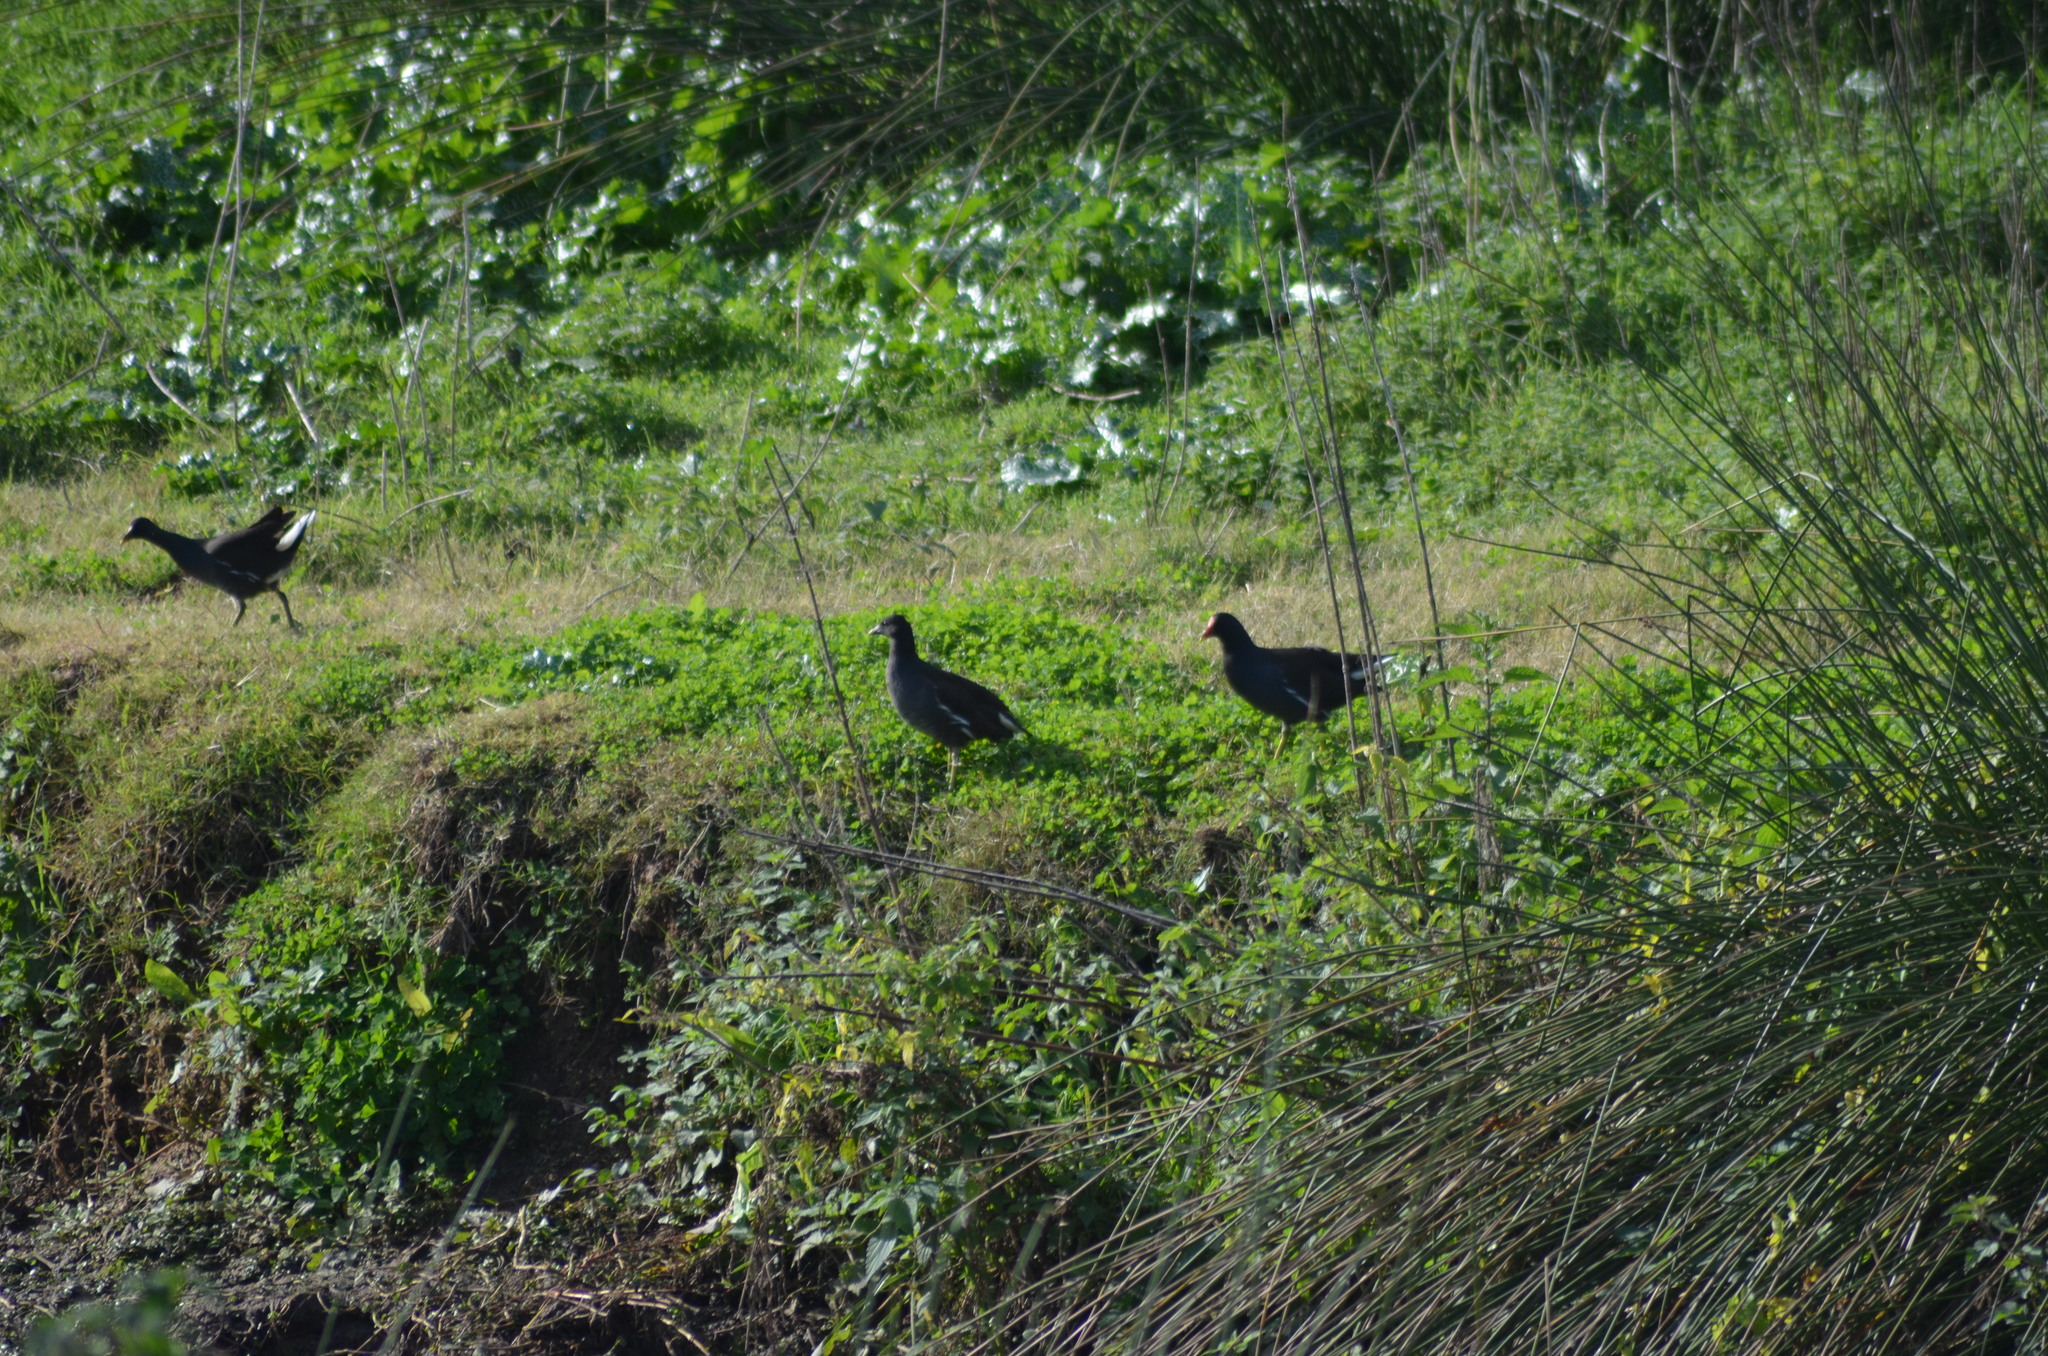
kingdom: Animalia
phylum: Chordata
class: Aves
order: Gruiformes
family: Rallidae
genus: Gallinula
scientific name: Gallinula chloropus
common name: Common moorhen
